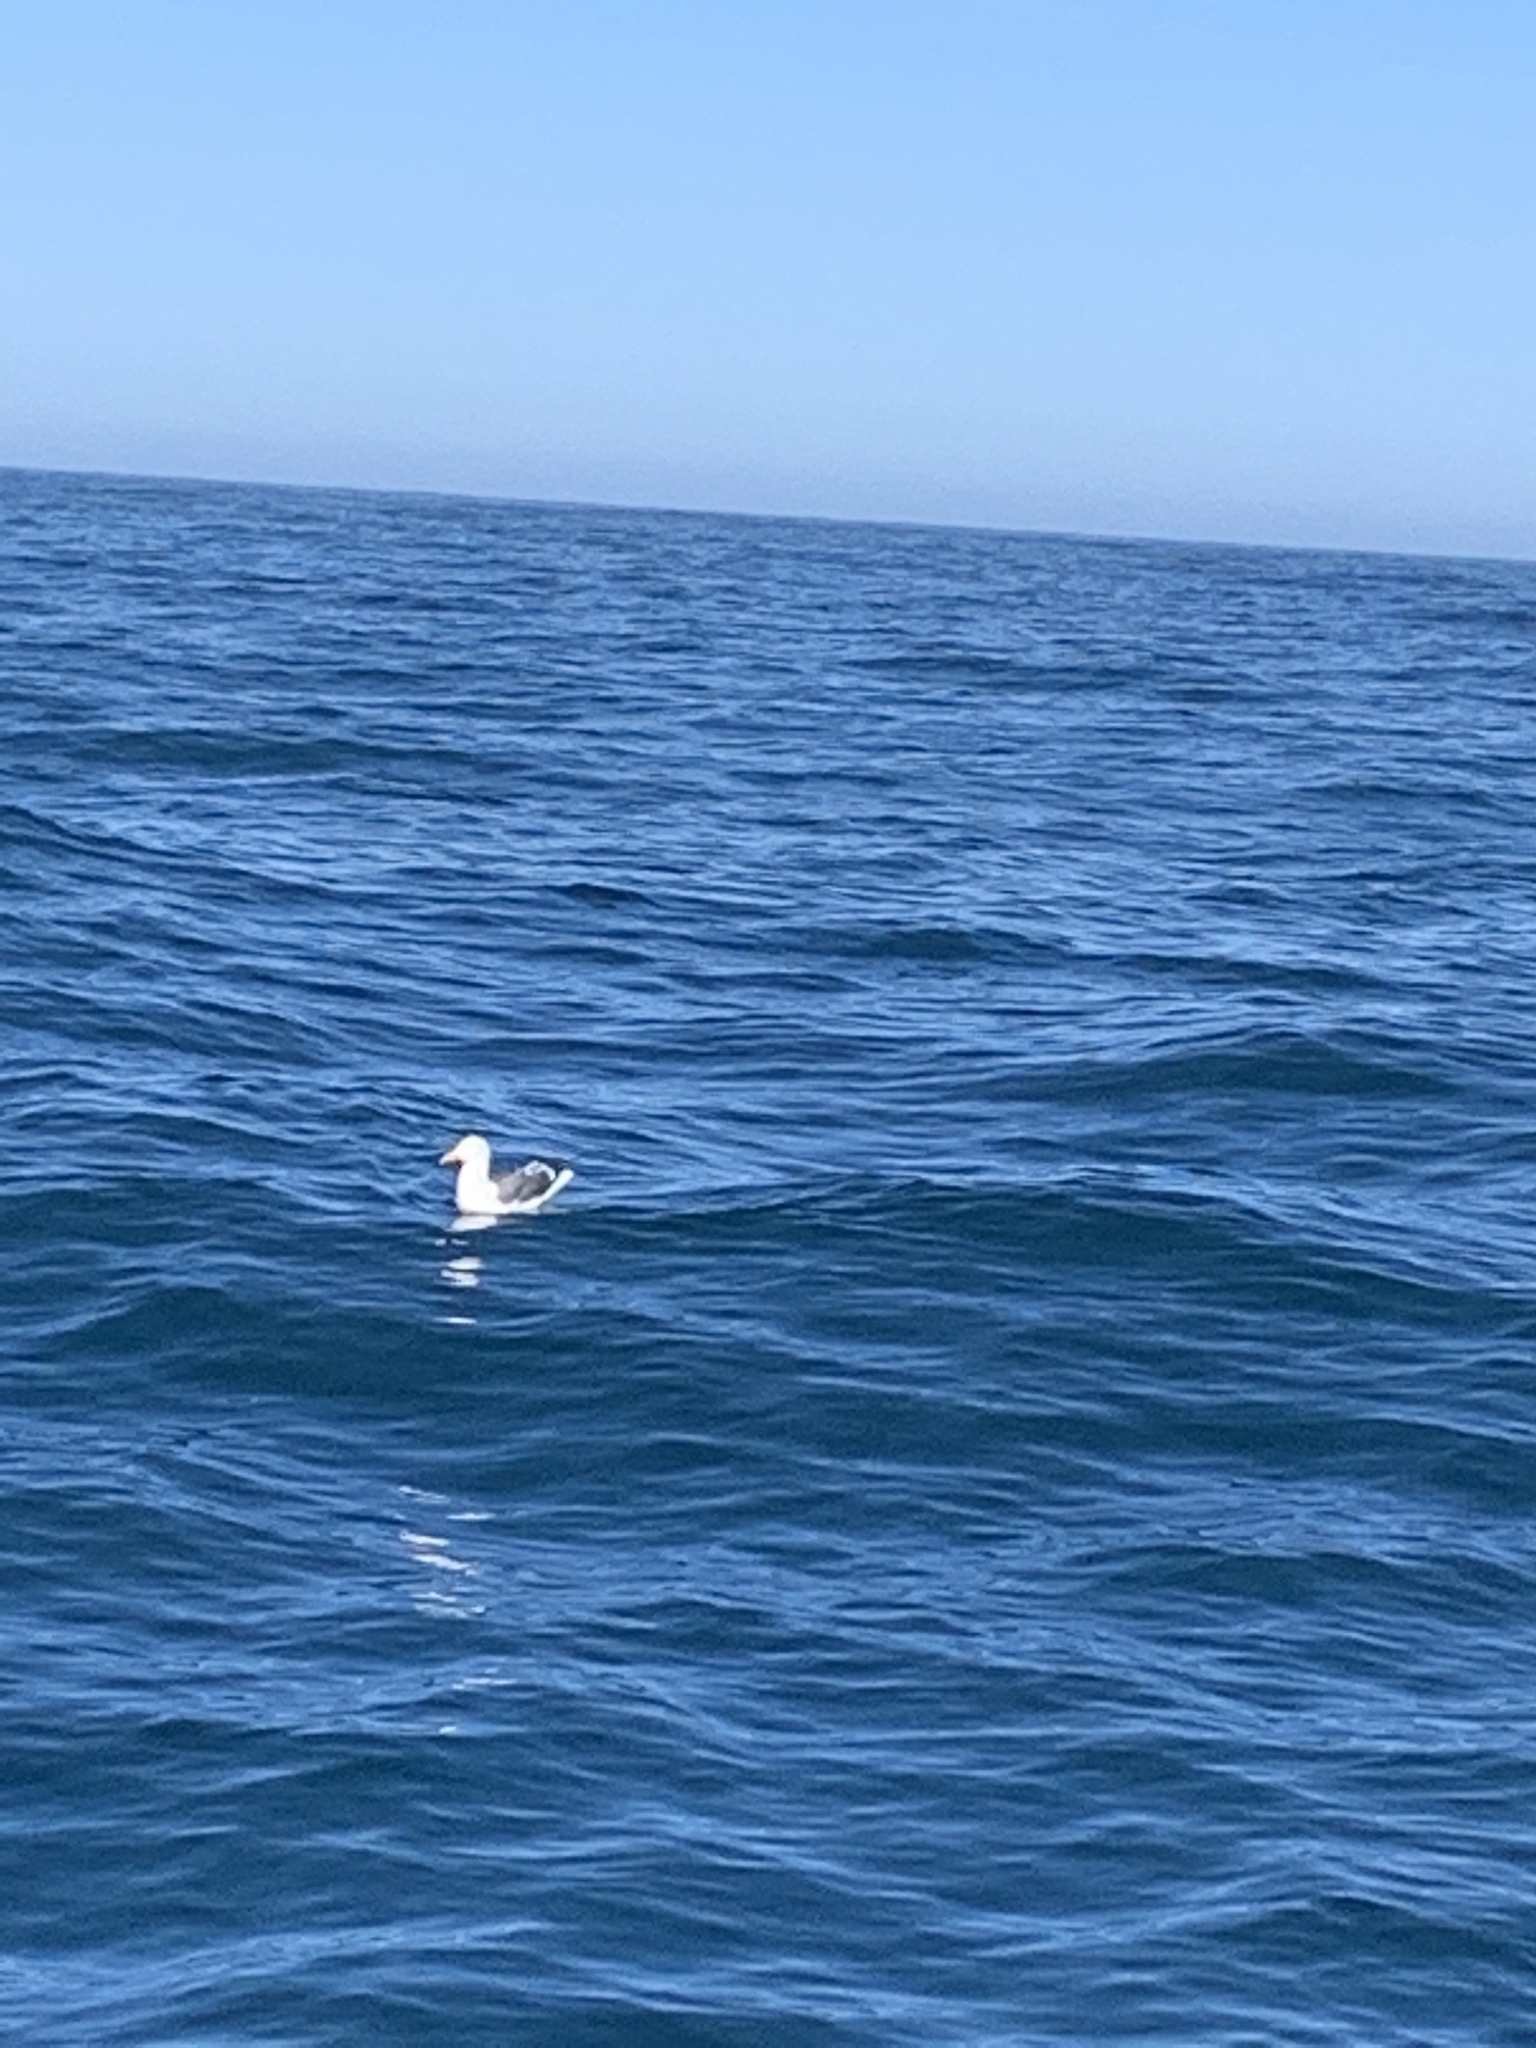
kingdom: Animalia
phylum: Chordata
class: Aves
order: Charadriiformes
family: Laridae
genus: Larus
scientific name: Larus occidentalis
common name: Western gull
